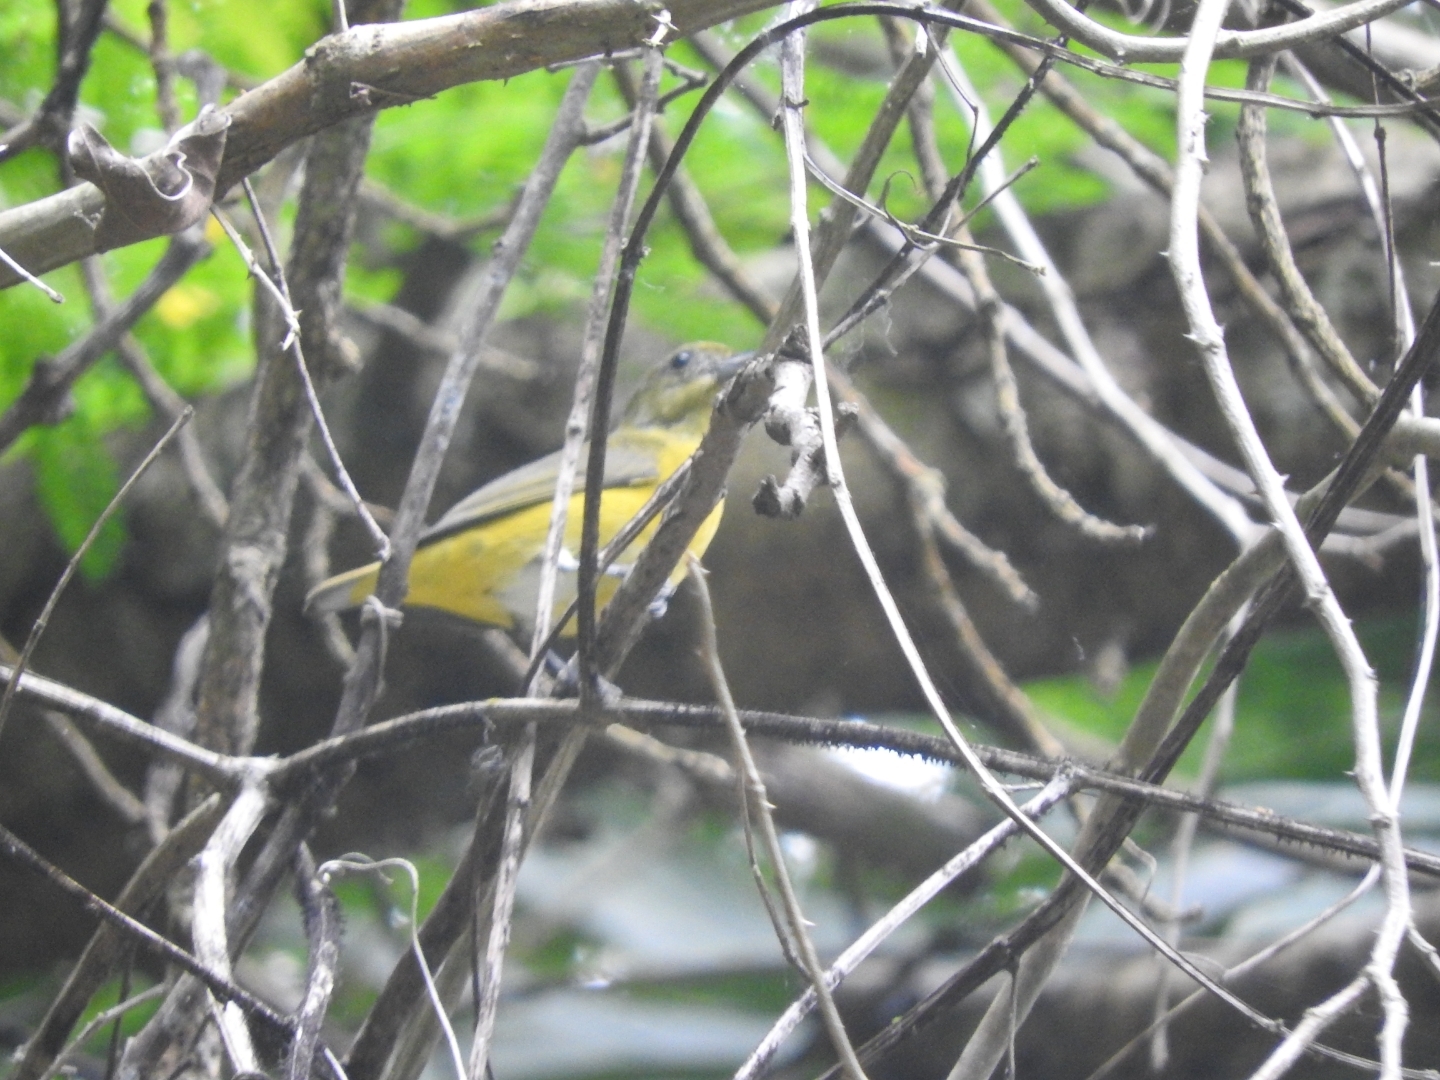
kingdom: Animalia
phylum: Chordata
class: Aves
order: Passeriformes
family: Fringillidae
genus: Euphonia
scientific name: Euphonia hirundinacea
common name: Yellow-throated euphonia
